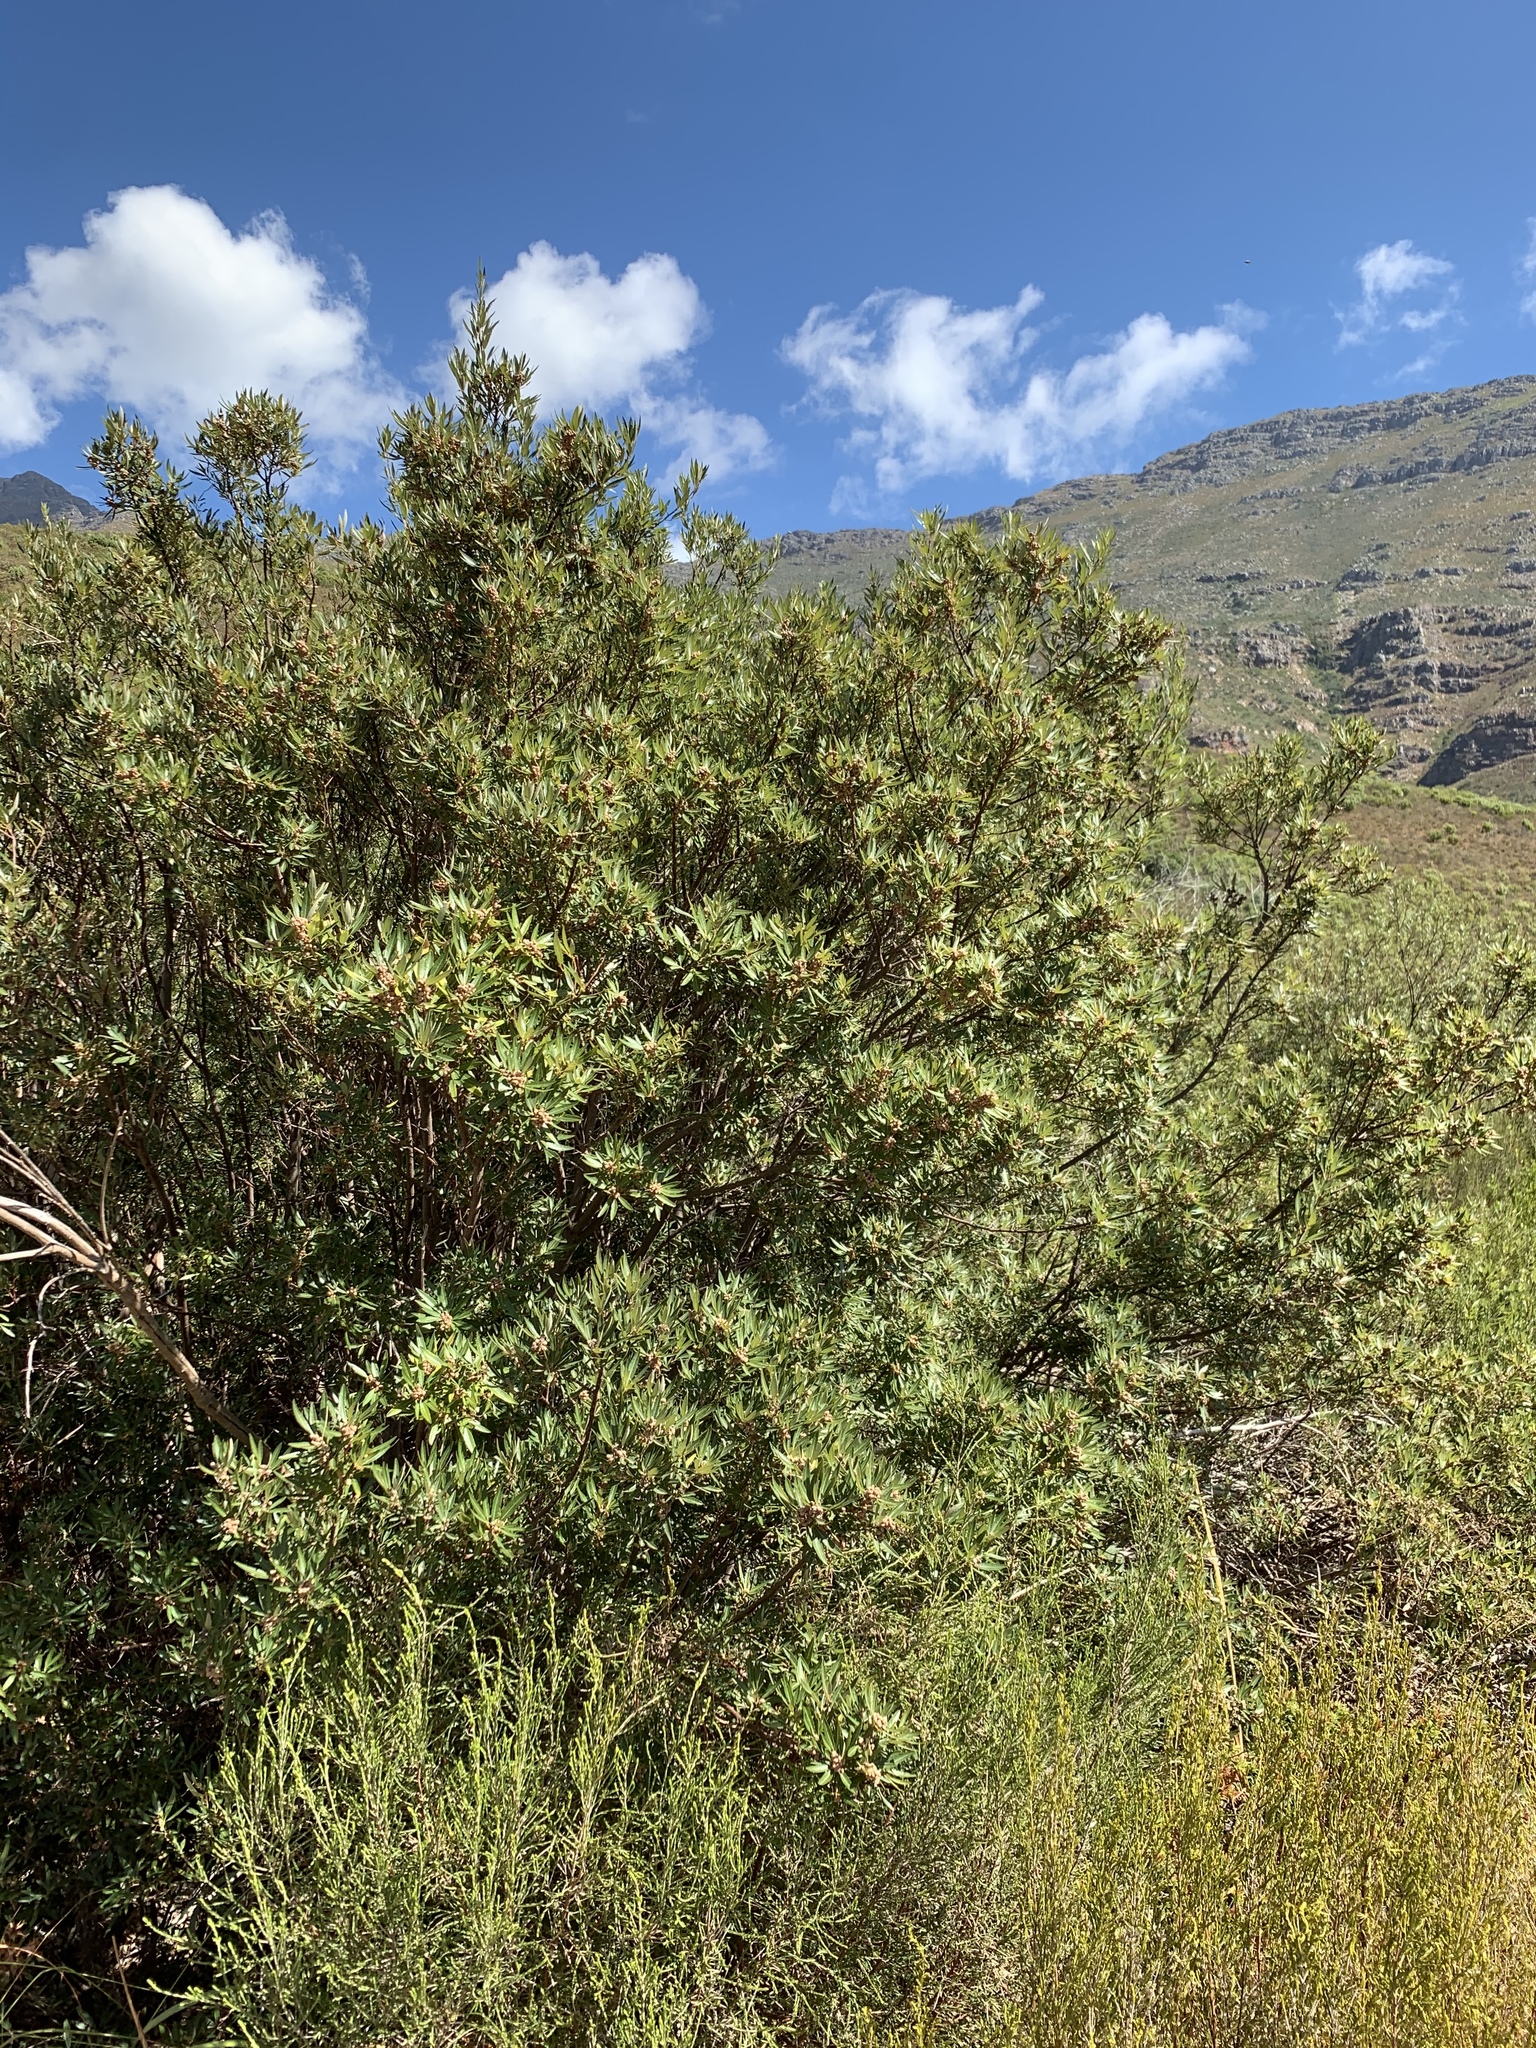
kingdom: Plantae
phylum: Tracheophyta
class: Magnoliopsida
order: Sapindales
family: Anacardiaceae
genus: Searsia
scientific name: Searsia angustifolia
